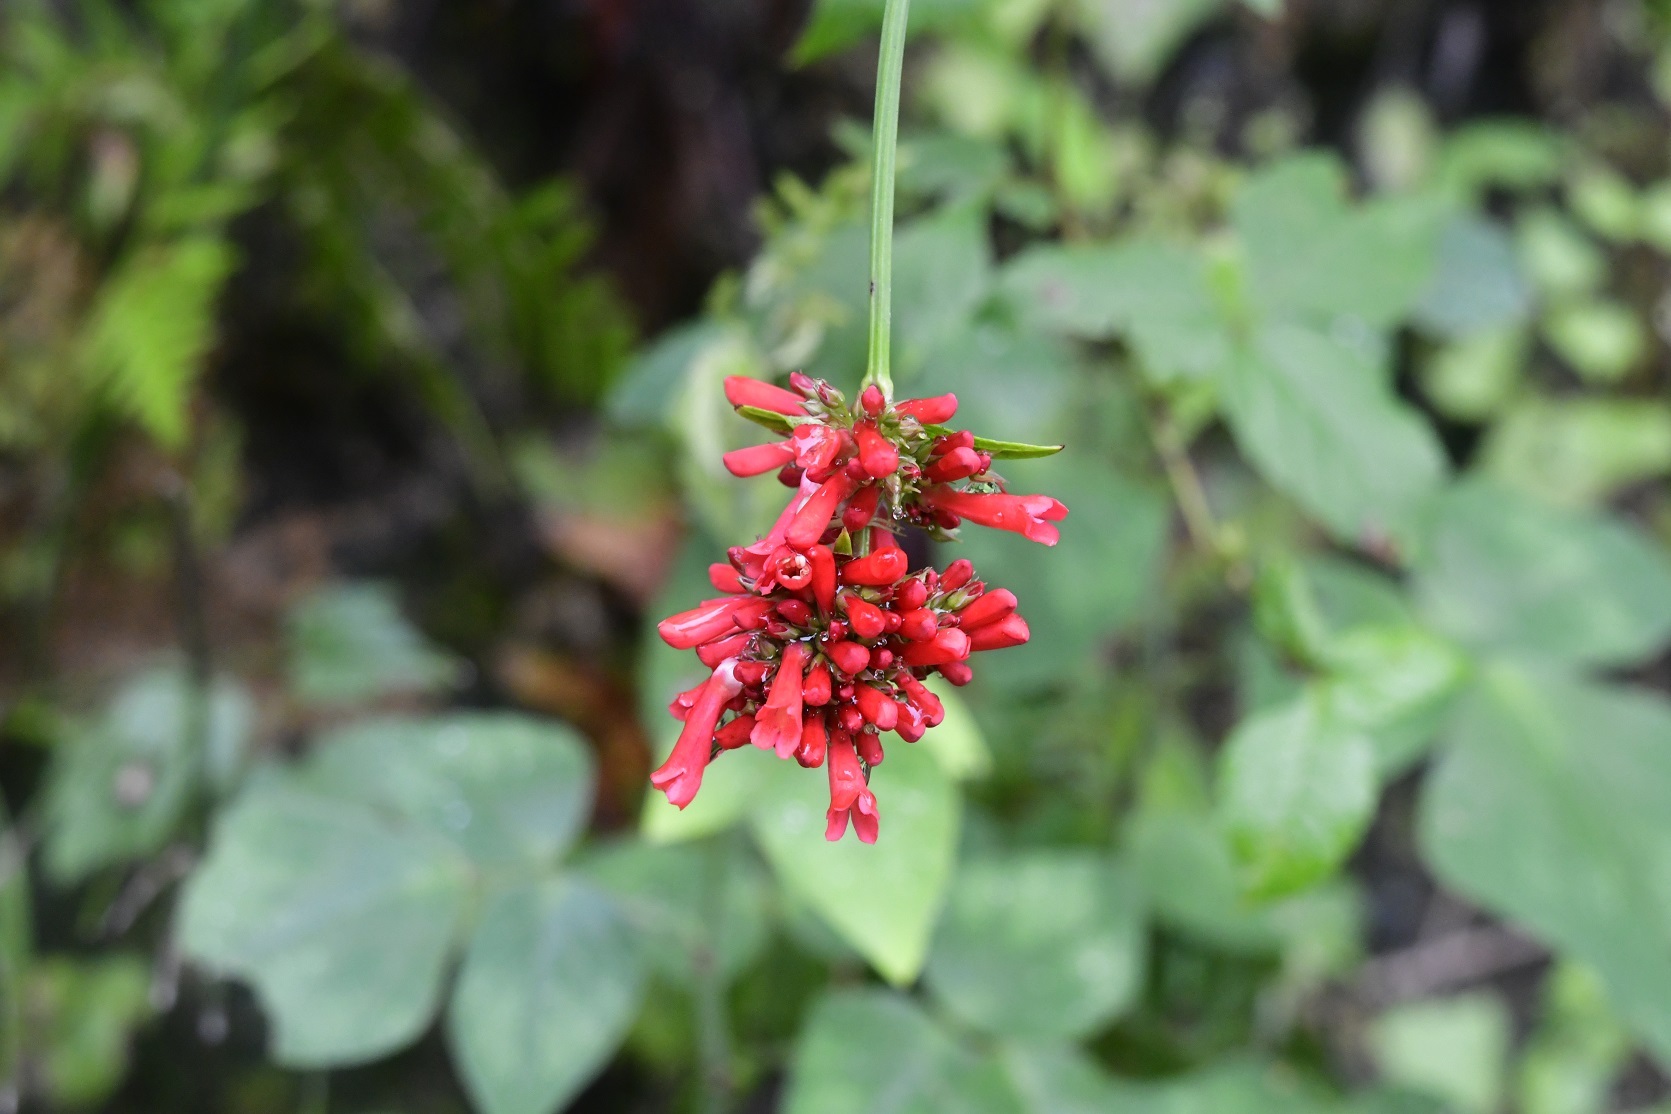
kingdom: Plantae
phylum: Tracheophyta
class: Magnoliopsida
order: Lamiales
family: Plantaginaceae
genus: Russelia
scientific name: Russelia verticillata
